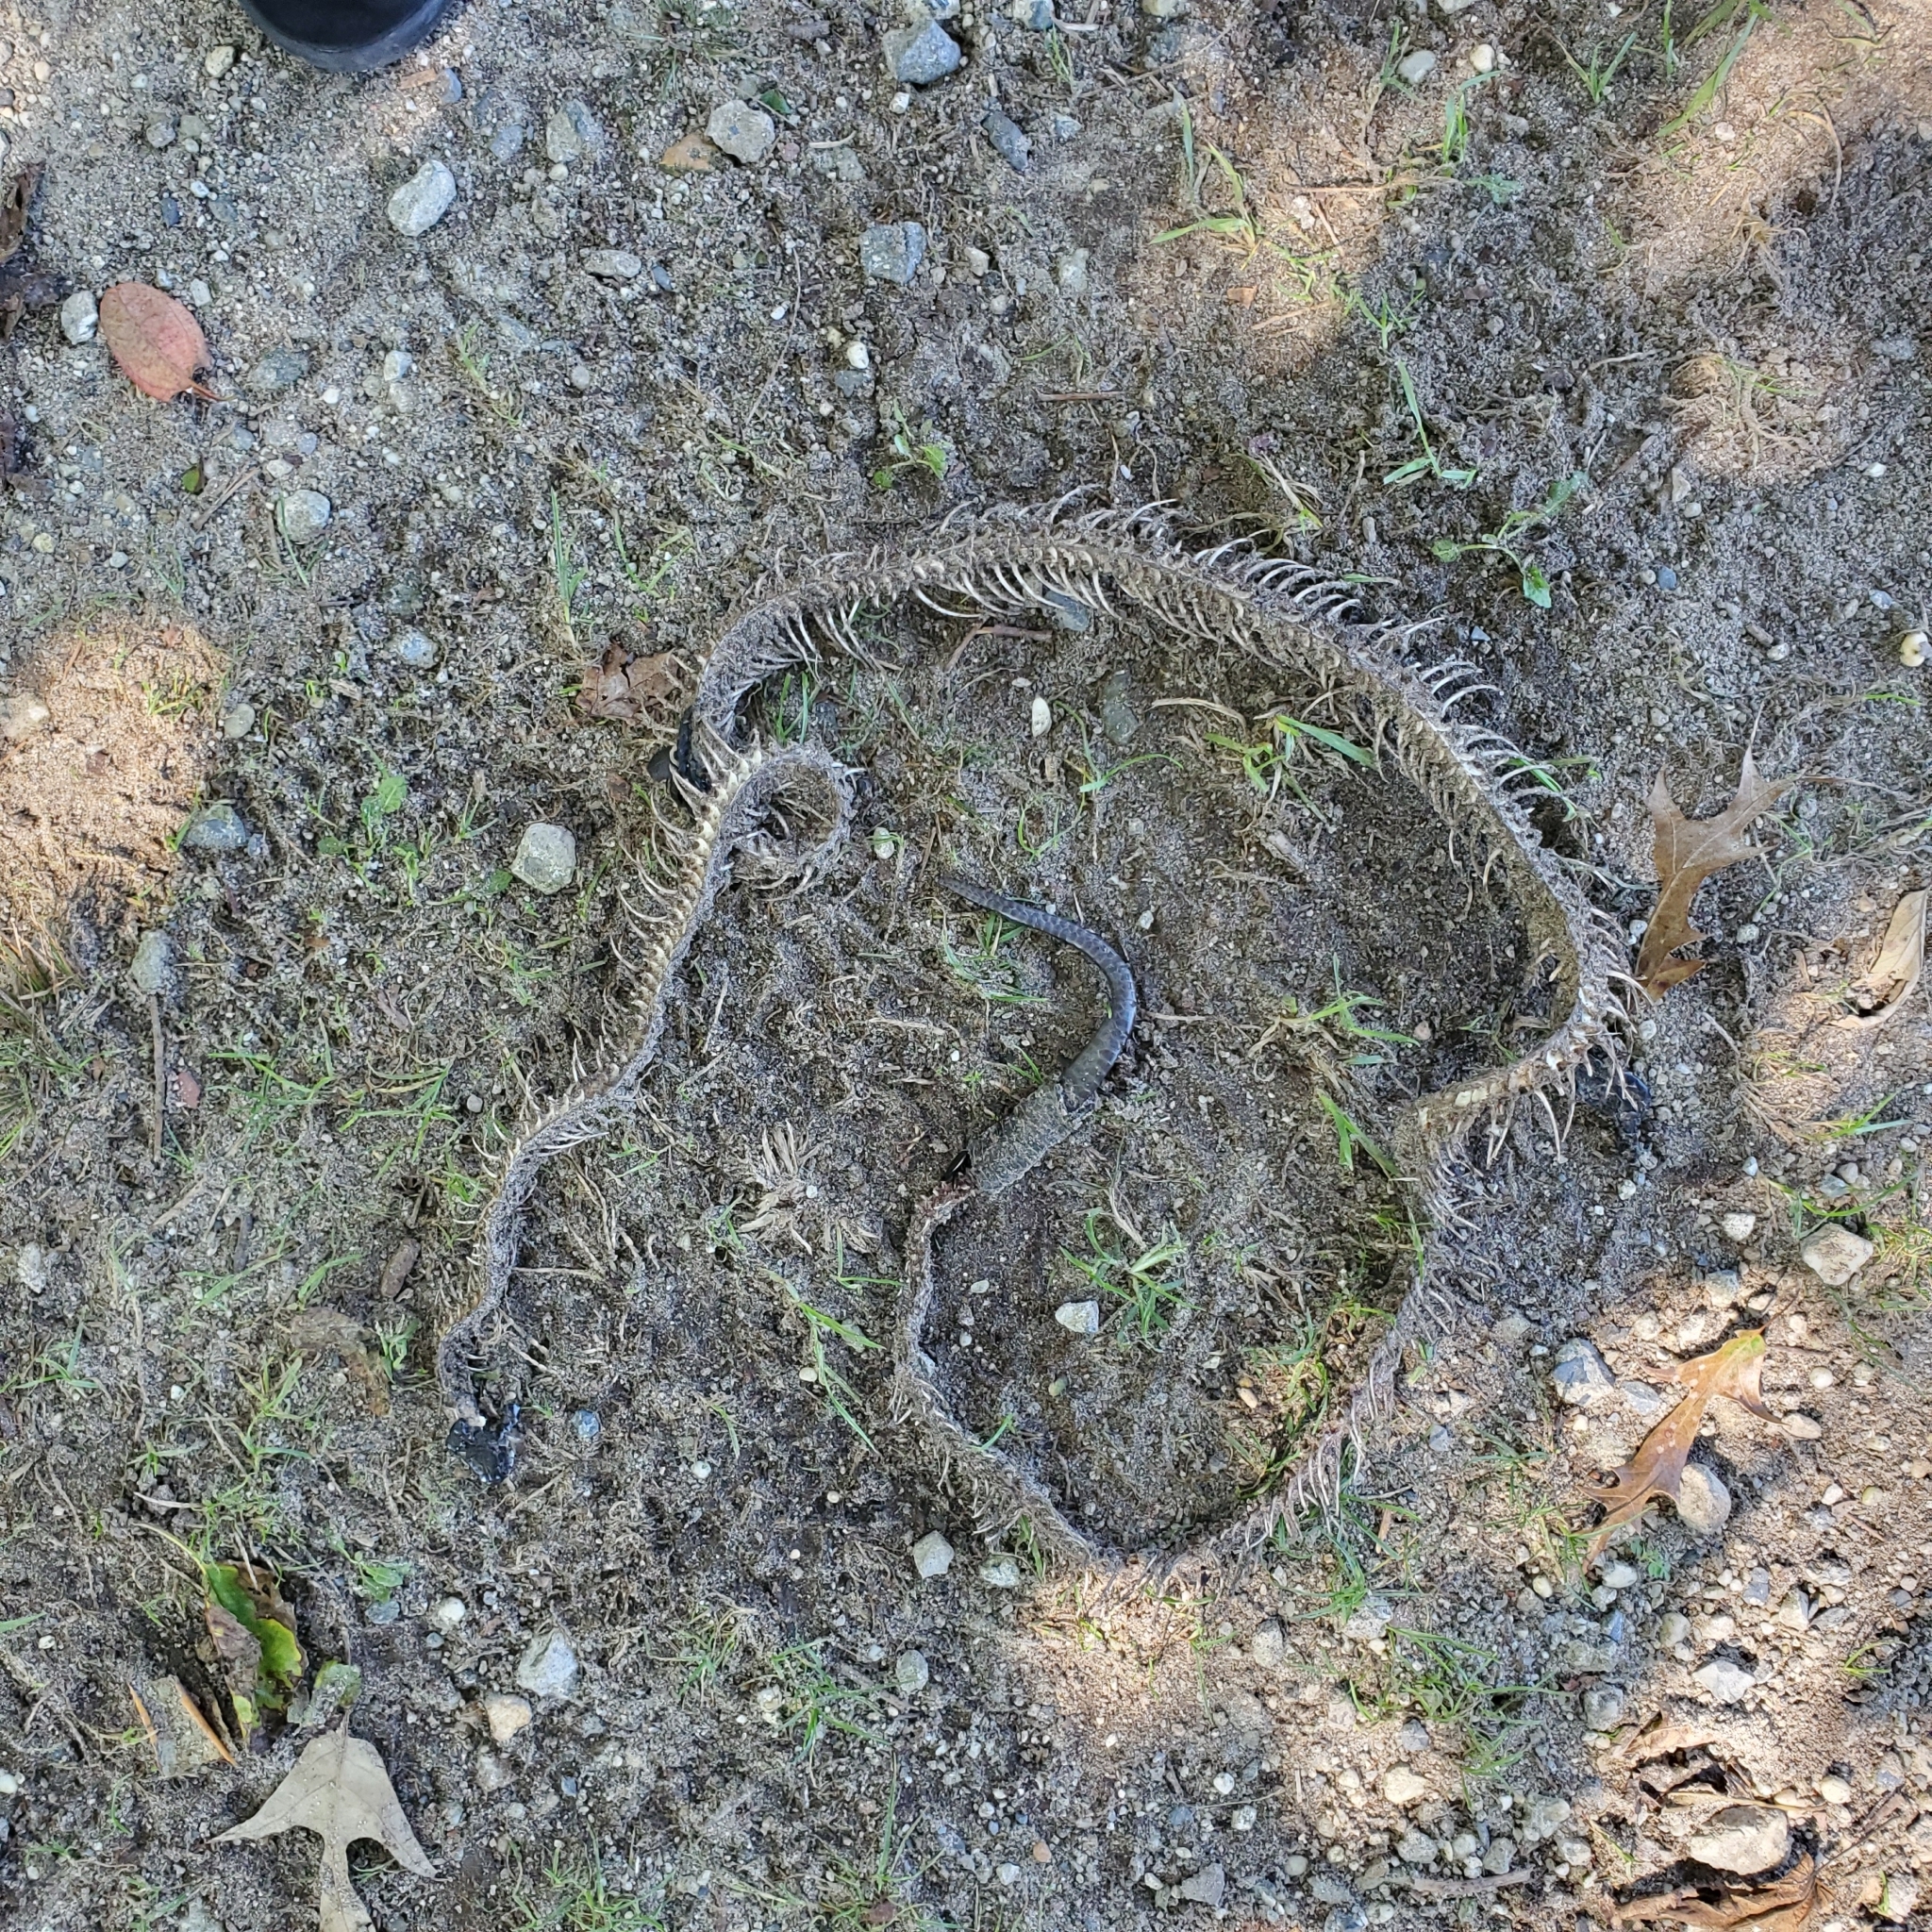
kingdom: Animalia
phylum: Arthropoda
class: Insecta
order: Coleoptera
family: Staphylinidae
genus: Necrophila
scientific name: Necrophila americana
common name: American carrion beetle
